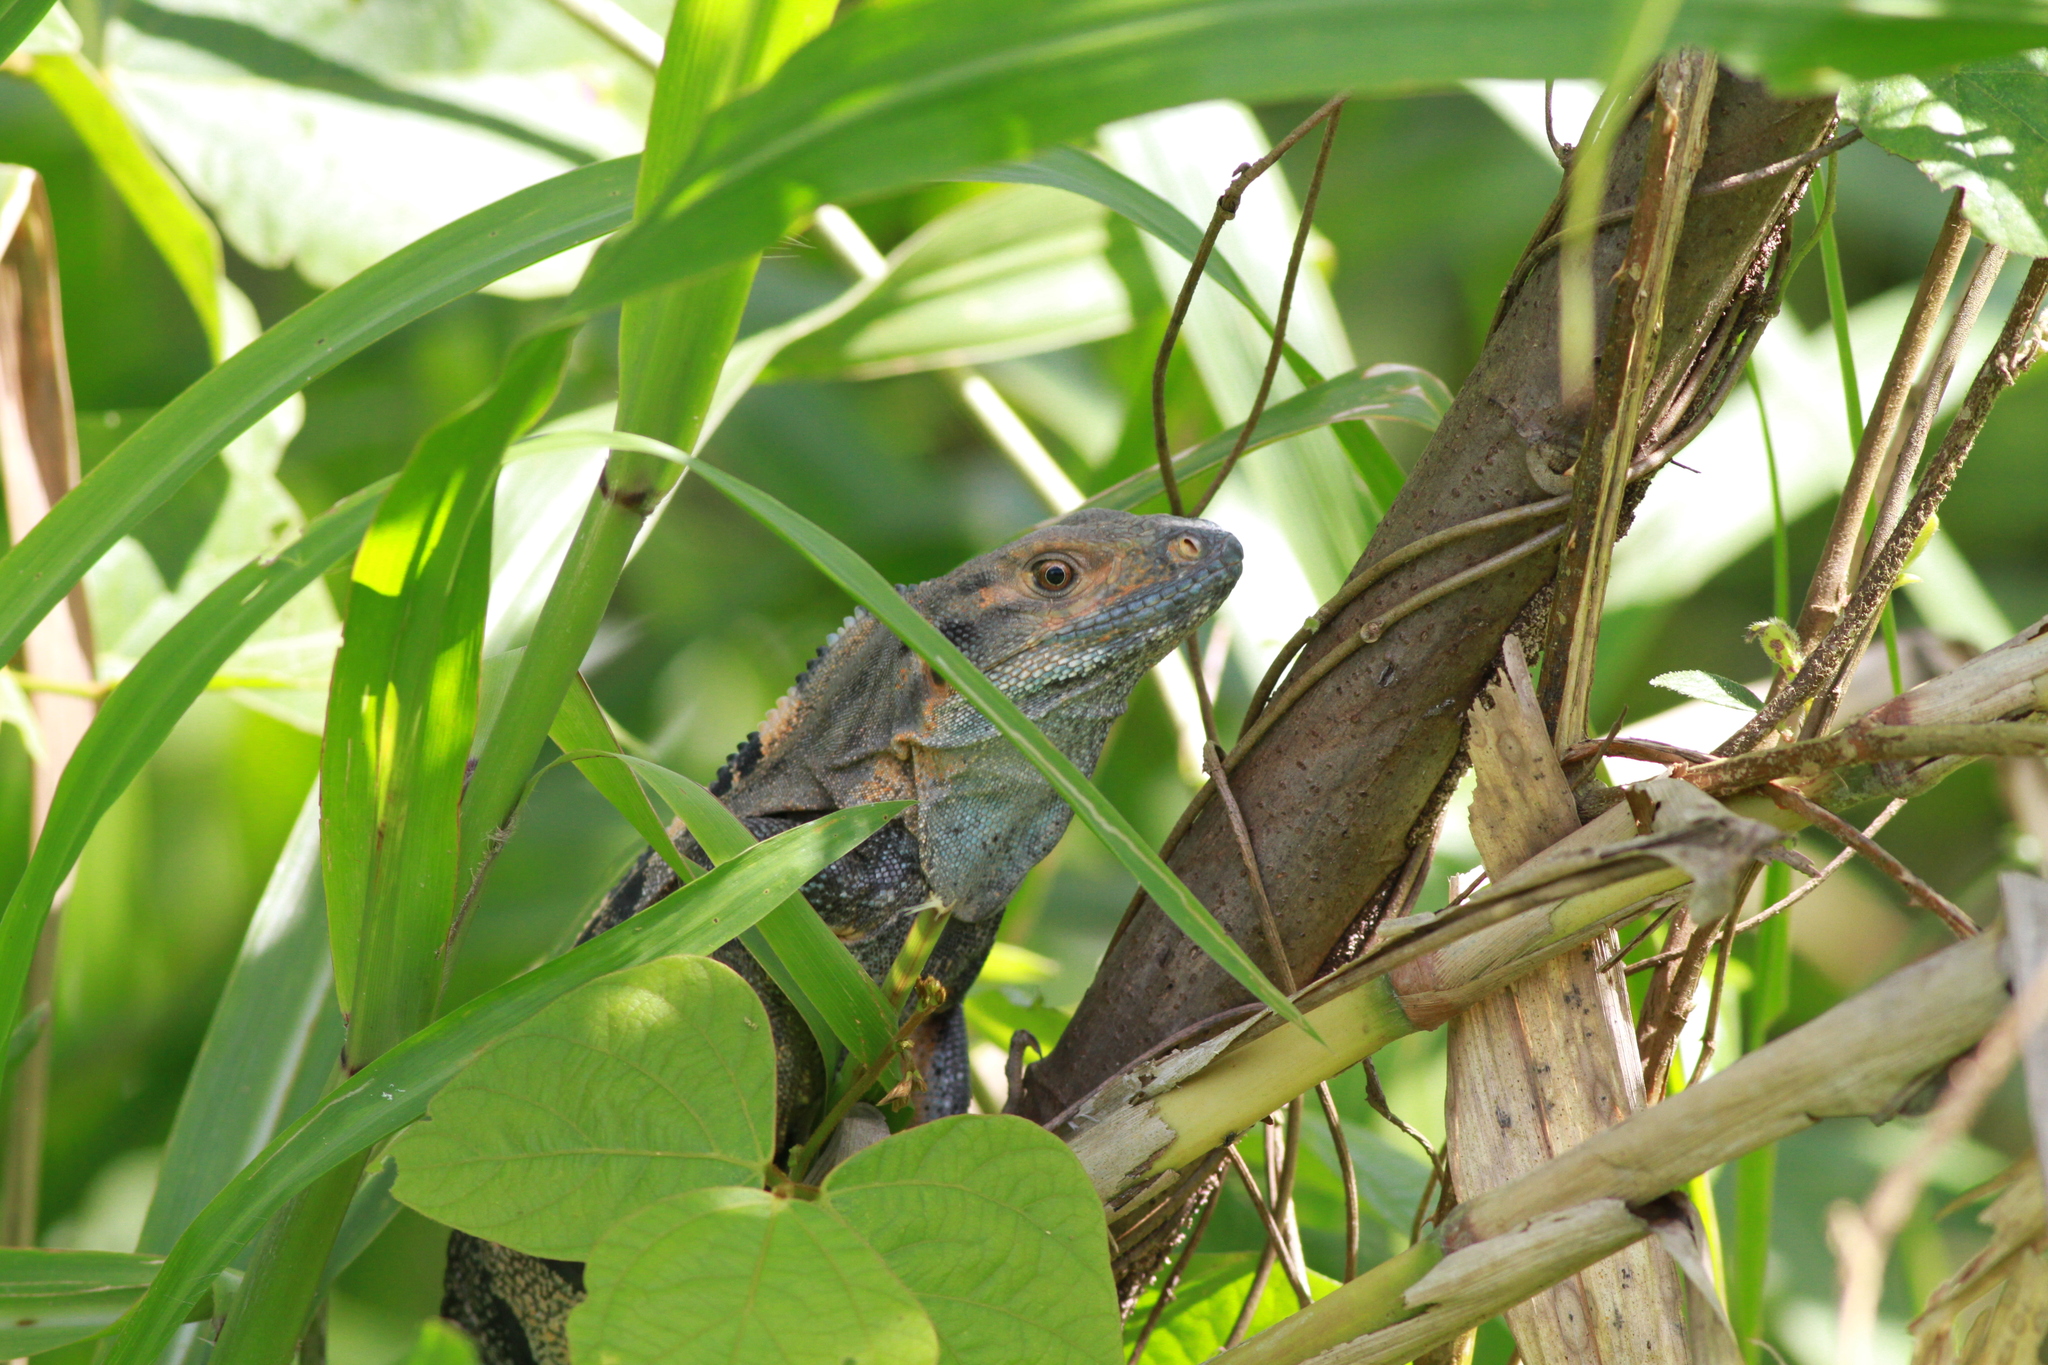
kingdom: Animalia
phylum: Chordata
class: Squamata
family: Iguanidae
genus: Ctenosaura
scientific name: Ctenosaura similis
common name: Black spiny-tailed iguana
